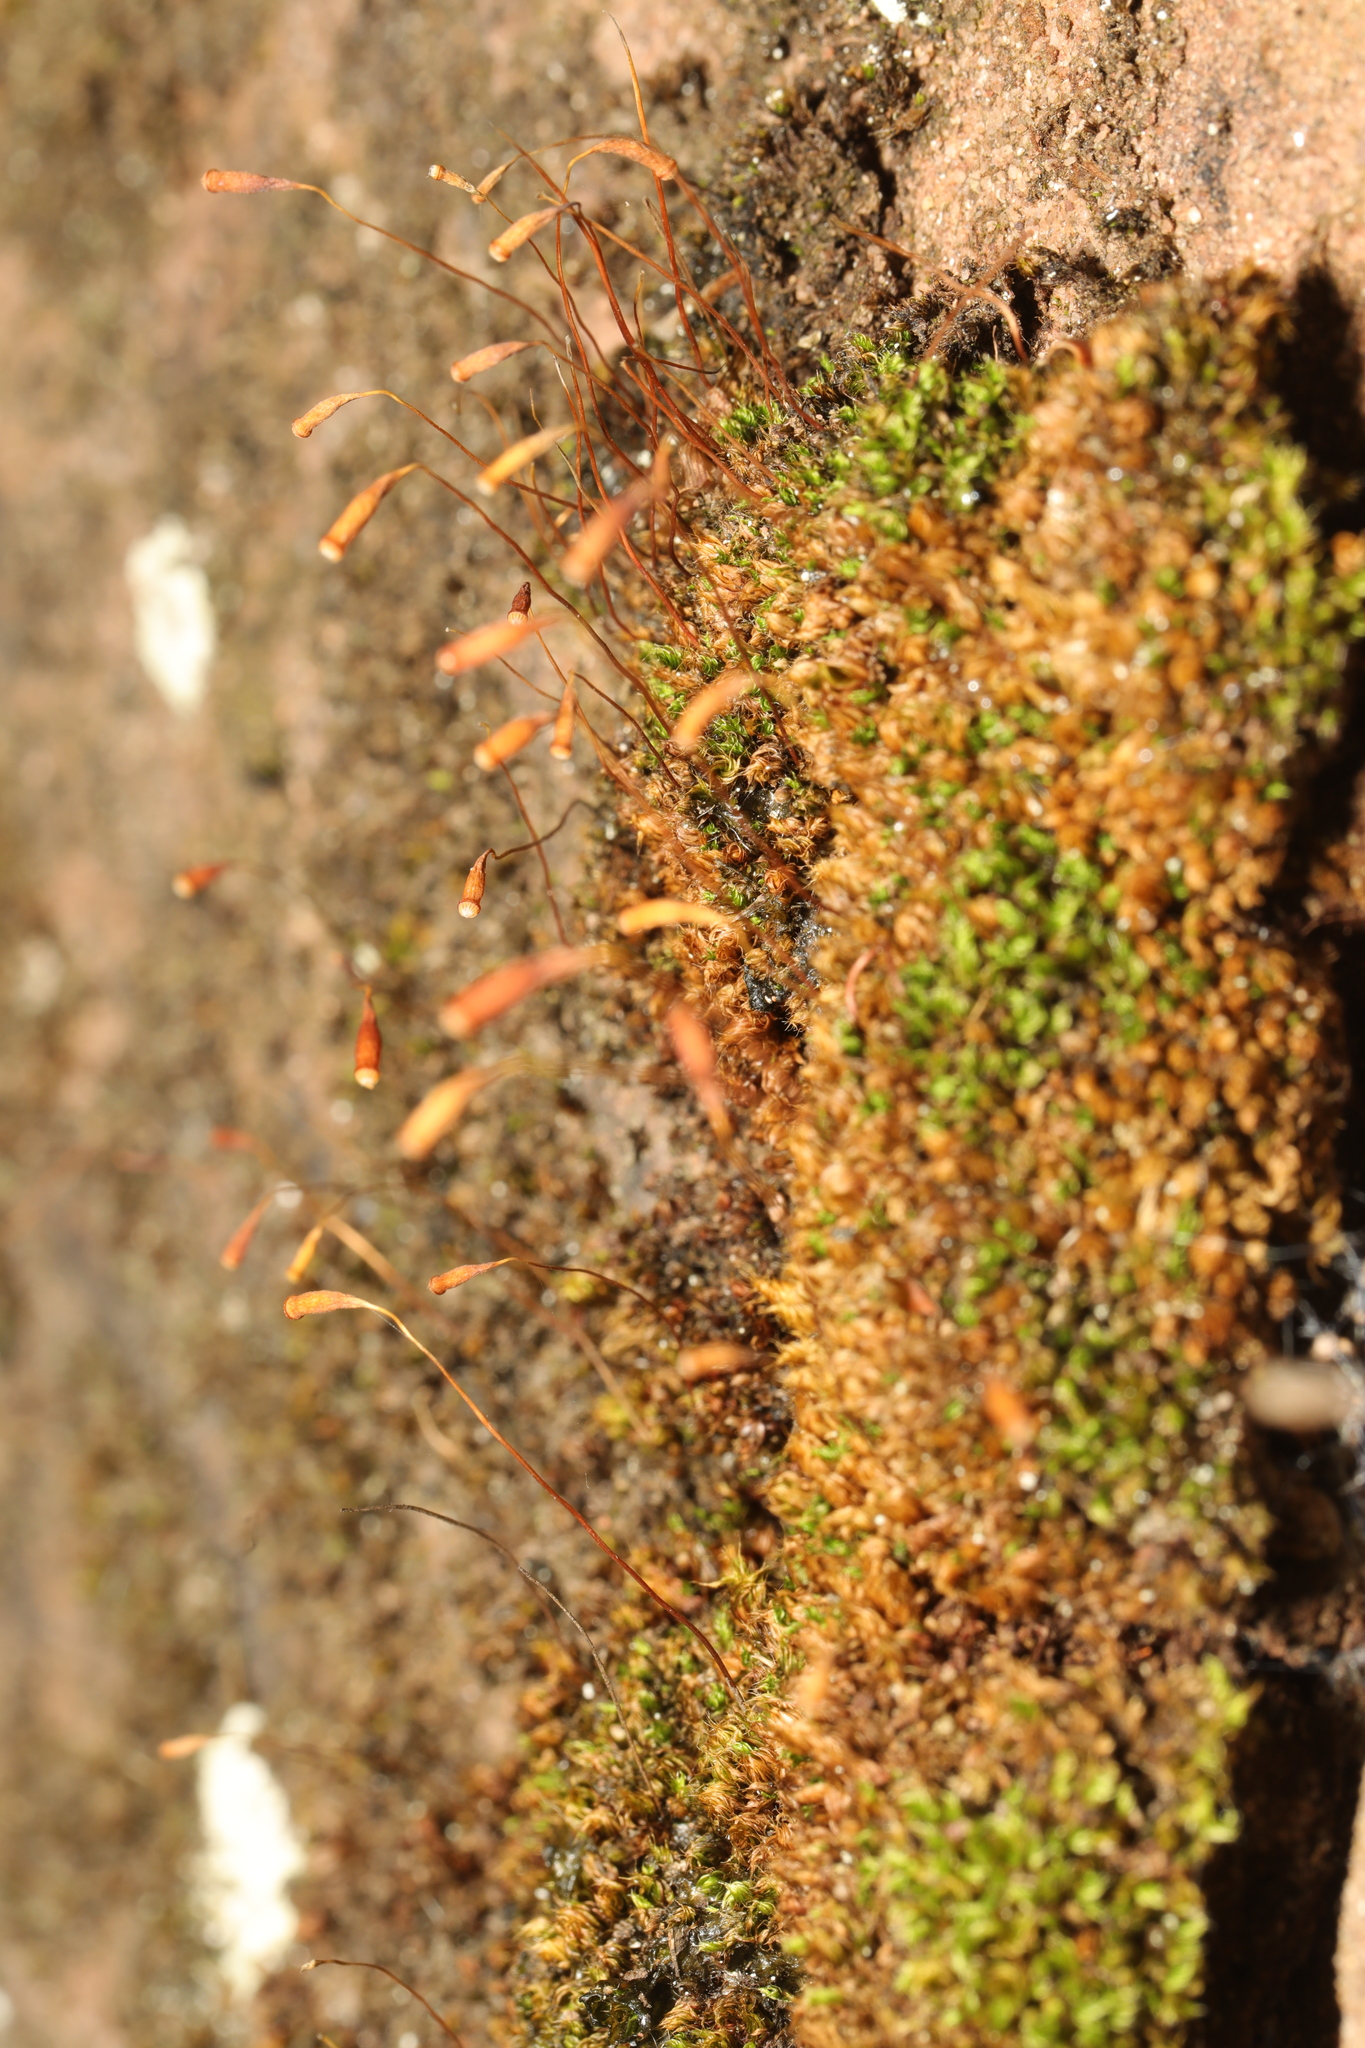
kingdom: Plantae
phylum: Bryophyta
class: Bryopsida
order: Bryales
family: Bryaceae
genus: Rosulabryum
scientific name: Rosulabryum capillare
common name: Capillary thread-moss
